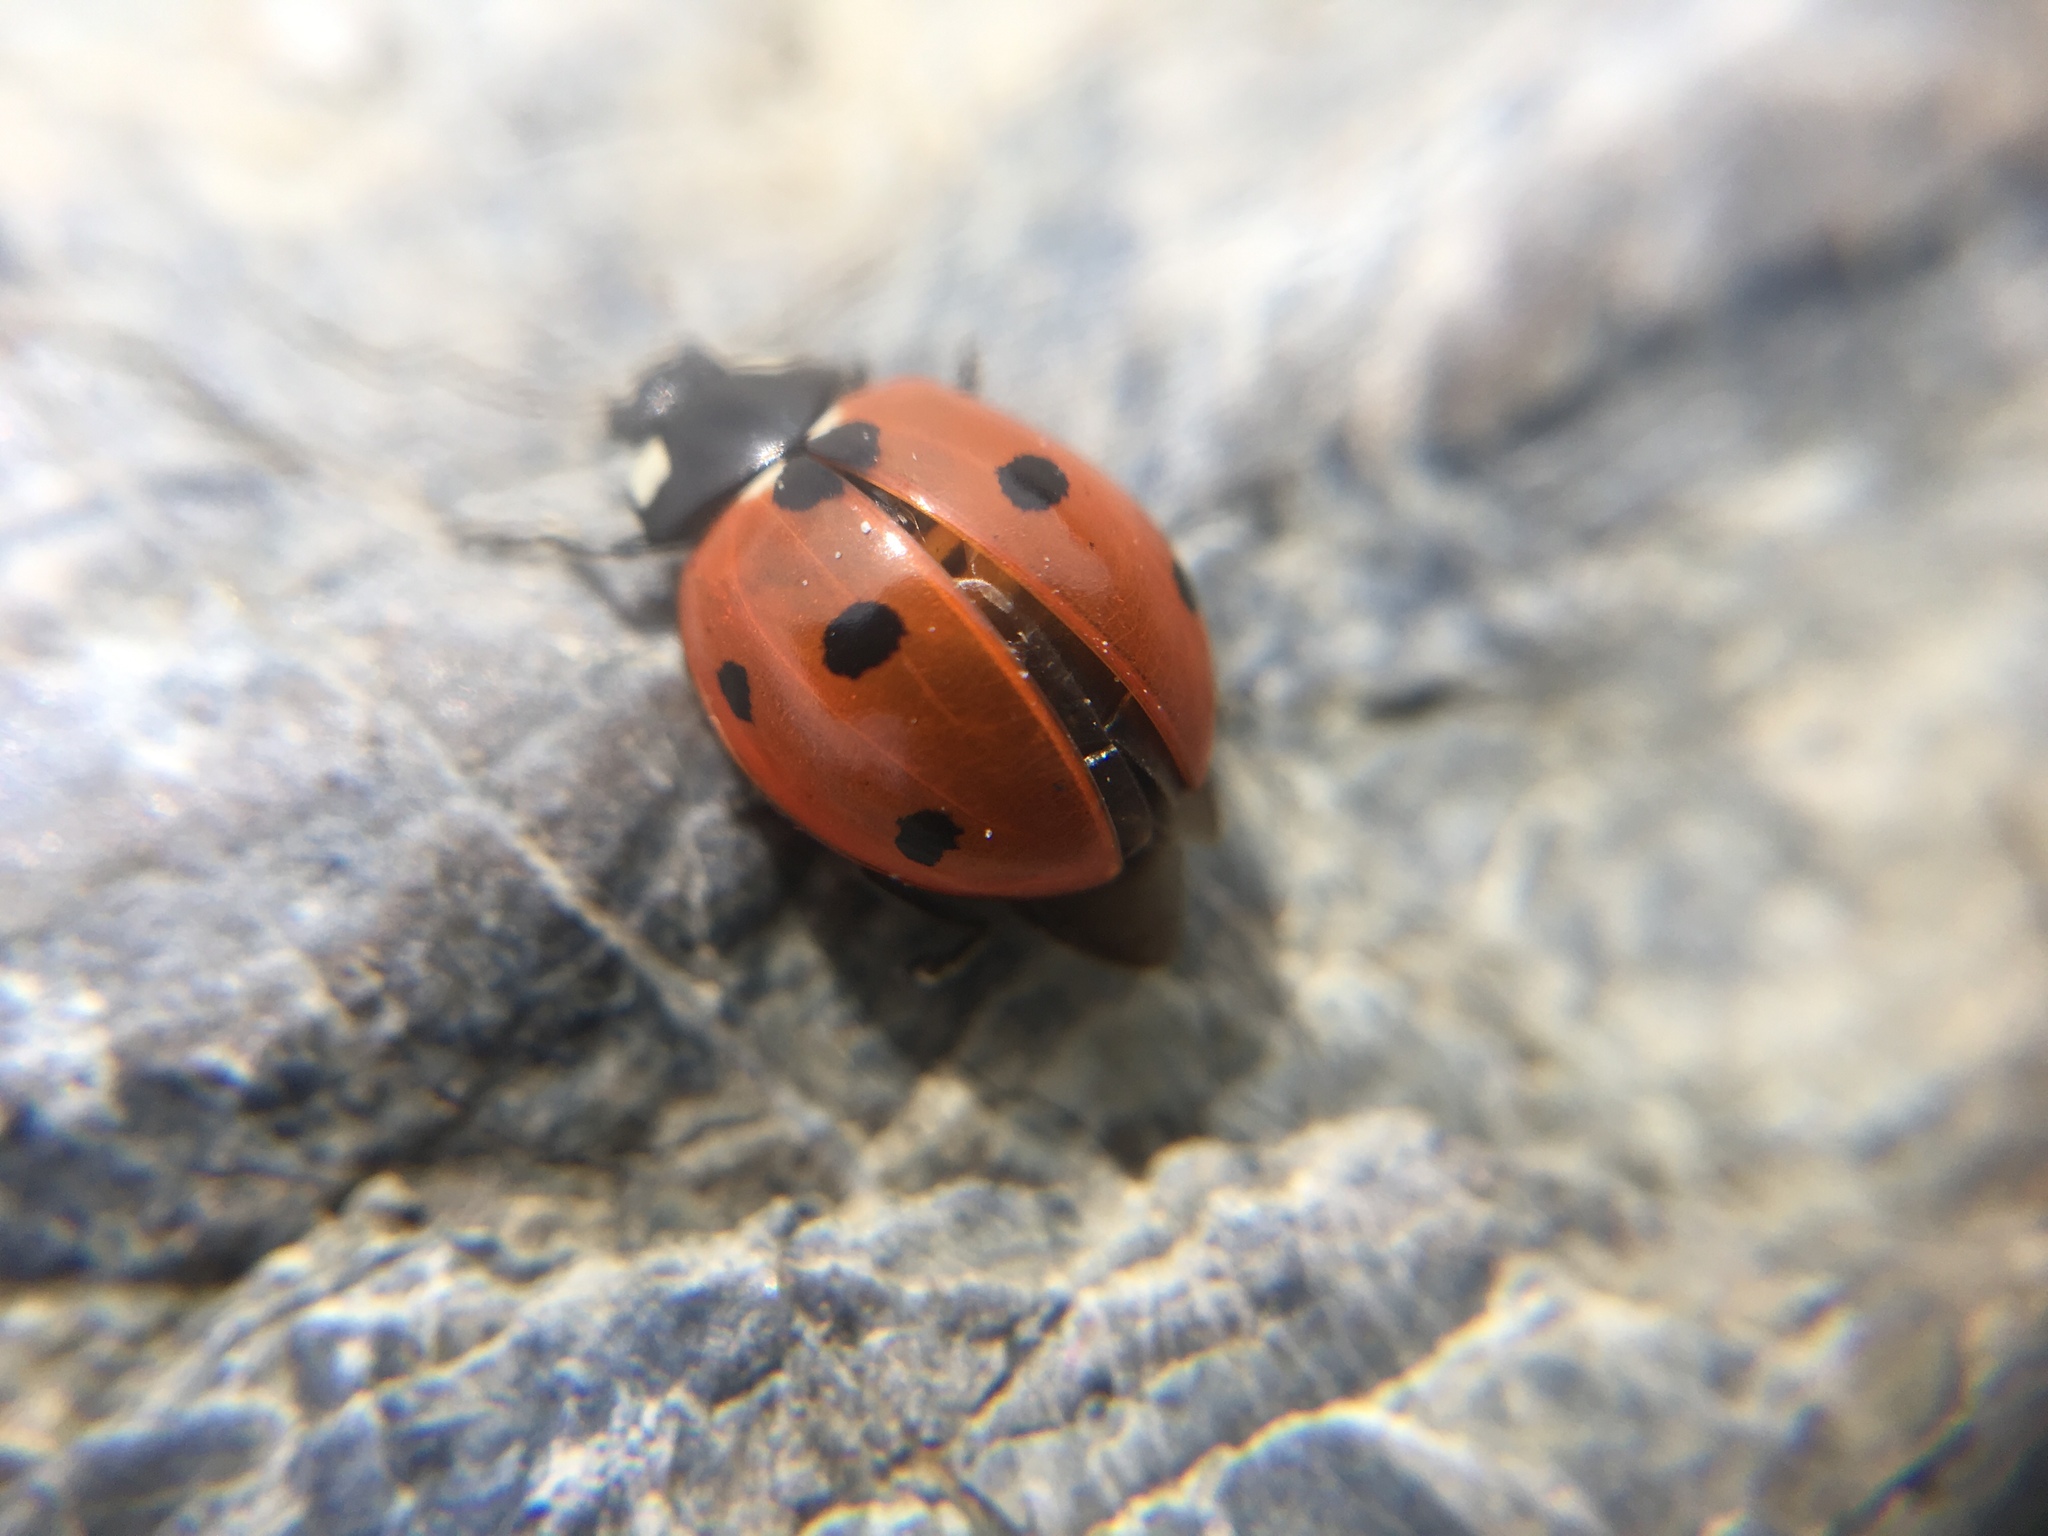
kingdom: Animalia
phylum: Arthropoda
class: Insecta
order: Coleoptera
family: Coccinellidae
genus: Coccinella
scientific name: Coccinella septempunctata
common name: Sevenspotted lady beetle
